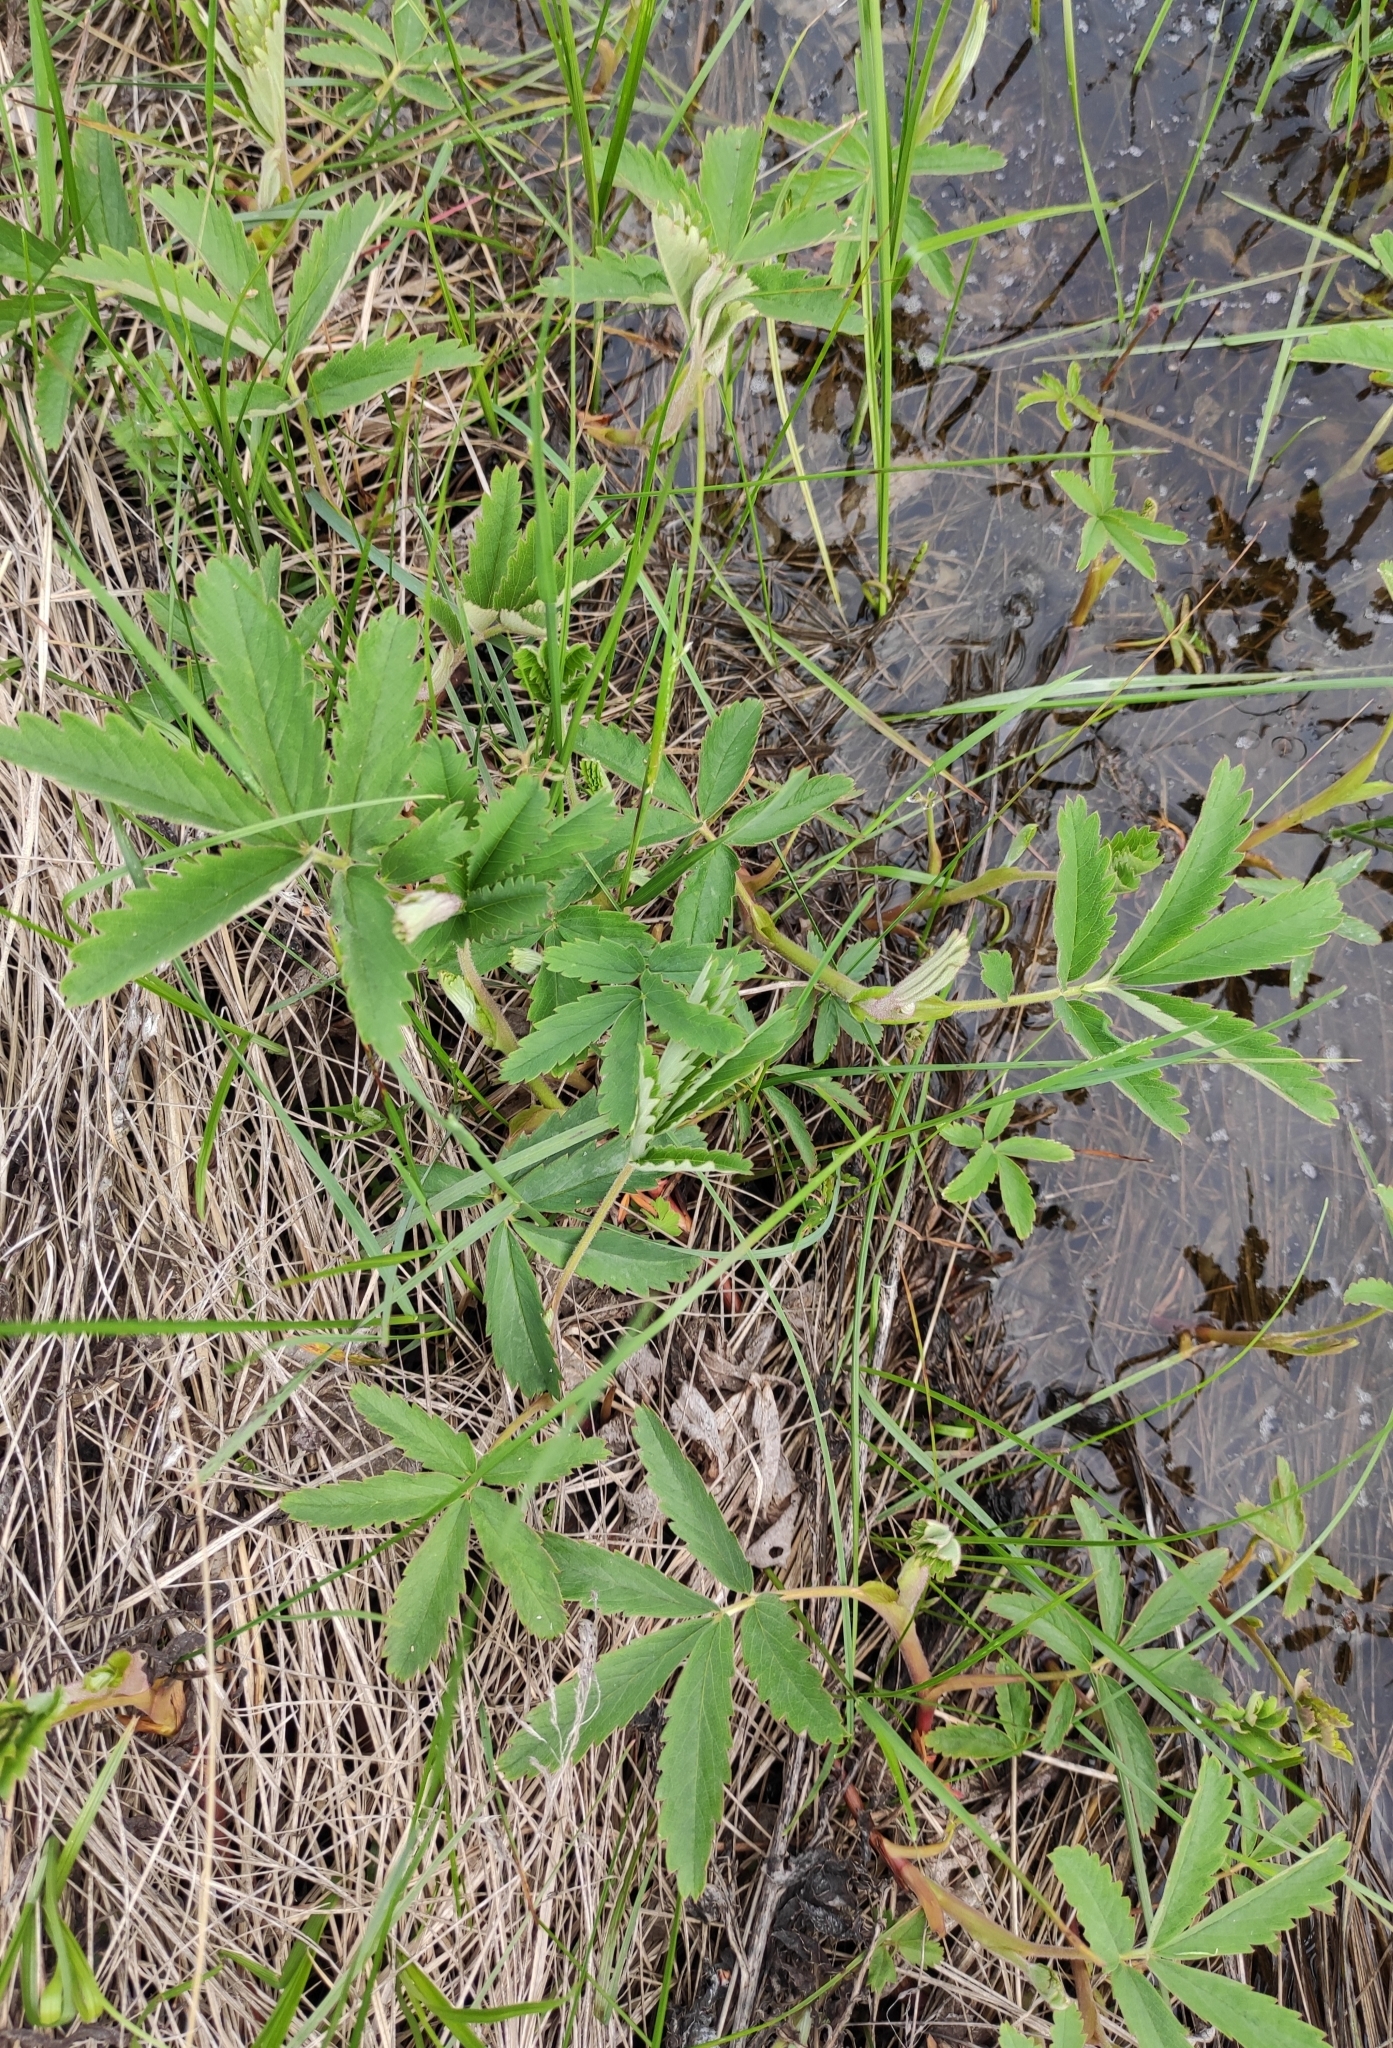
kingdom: Plantae
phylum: Tracheophyta
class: Magnoliopsida
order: Rosales
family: Rosaceae
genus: Comarum
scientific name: Comarum palustre
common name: Marsh cinquefoil
